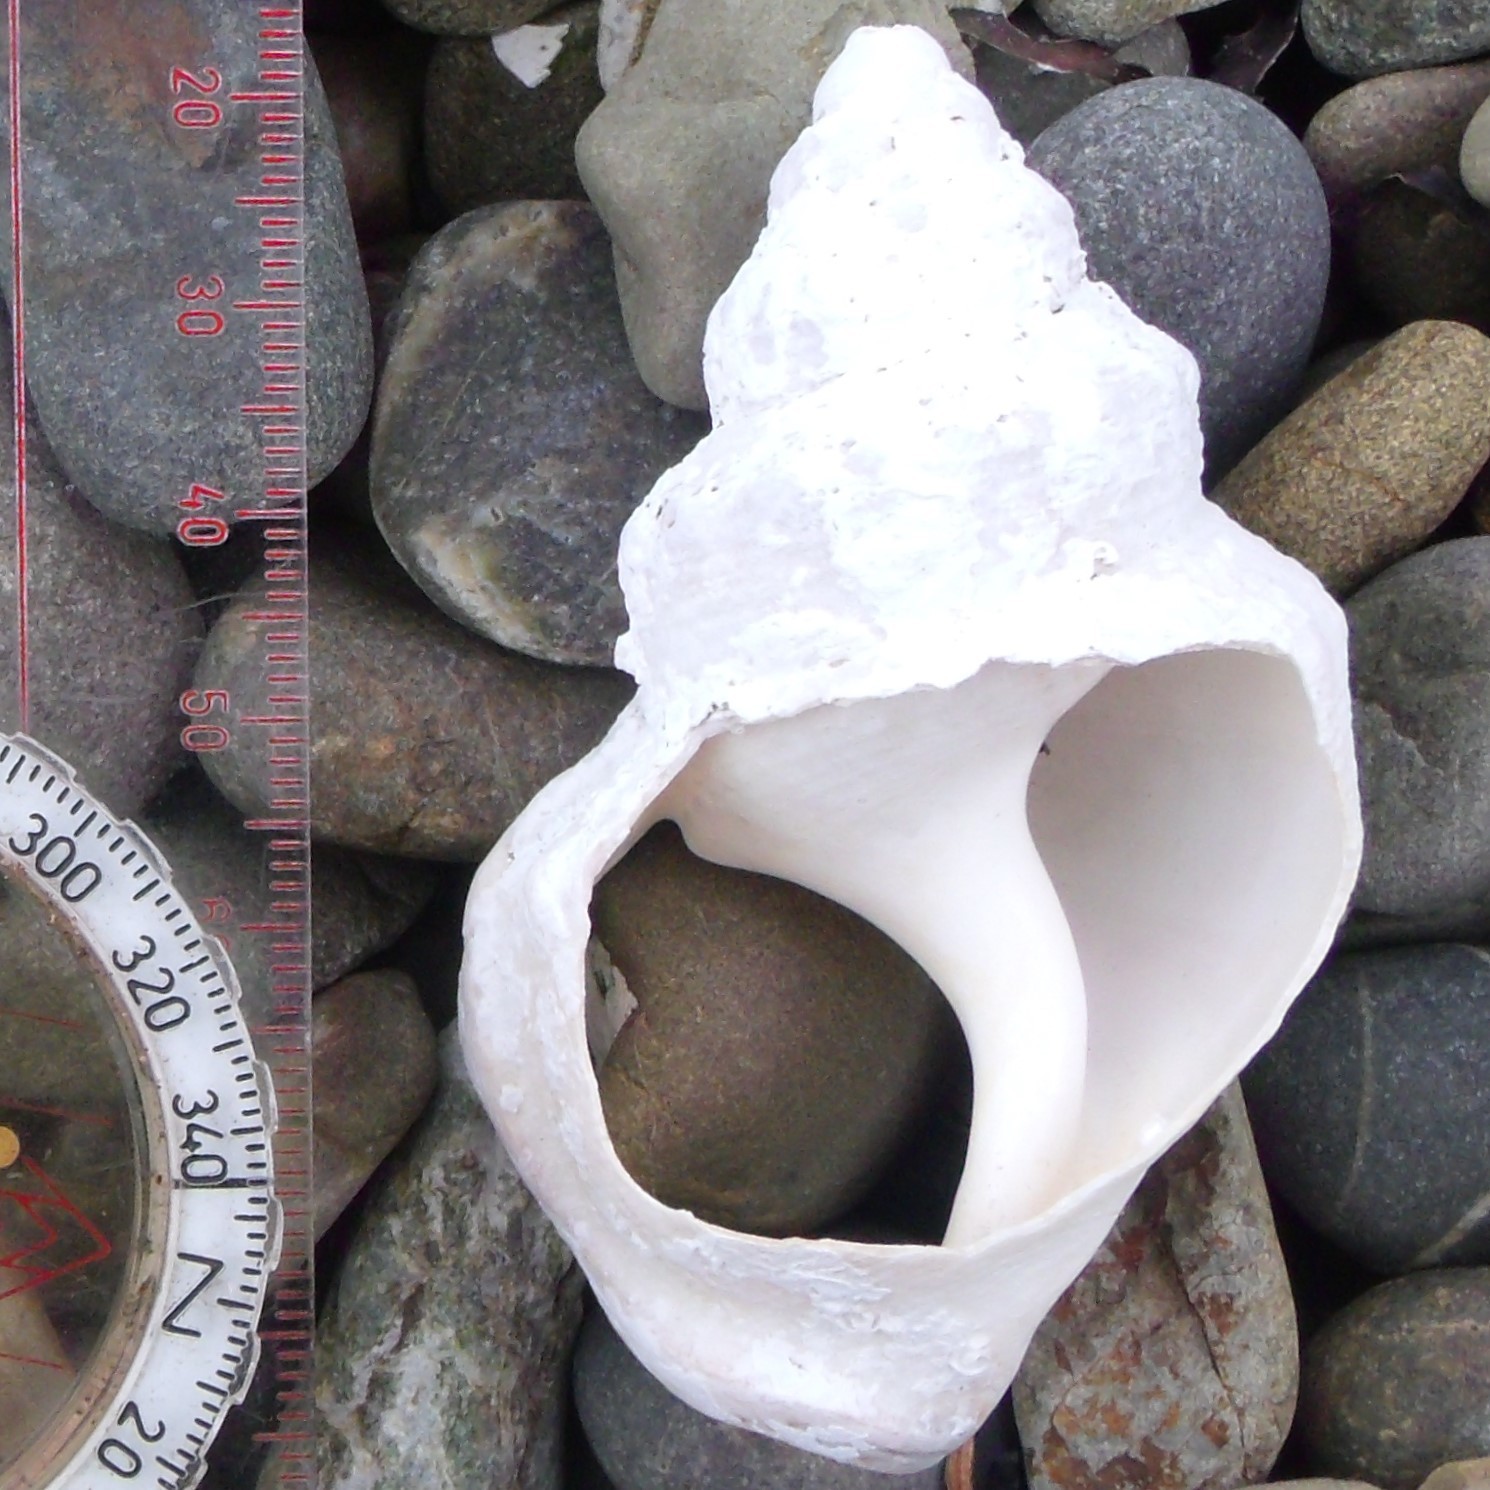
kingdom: Animalia
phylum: Mollusca
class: Gastropoda
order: Littorinimorpha
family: Struthiolariidae
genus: Struthiolaria
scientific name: Struthiolaria papulosa
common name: Large ostrich foot
